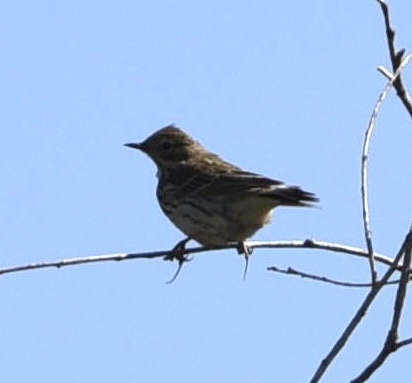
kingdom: Animalia
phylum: Chordata
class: Aves
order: Passeriformes
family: Motacillidae
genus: Anthus
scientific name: Anthus pratensis
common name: Meadow pipit
